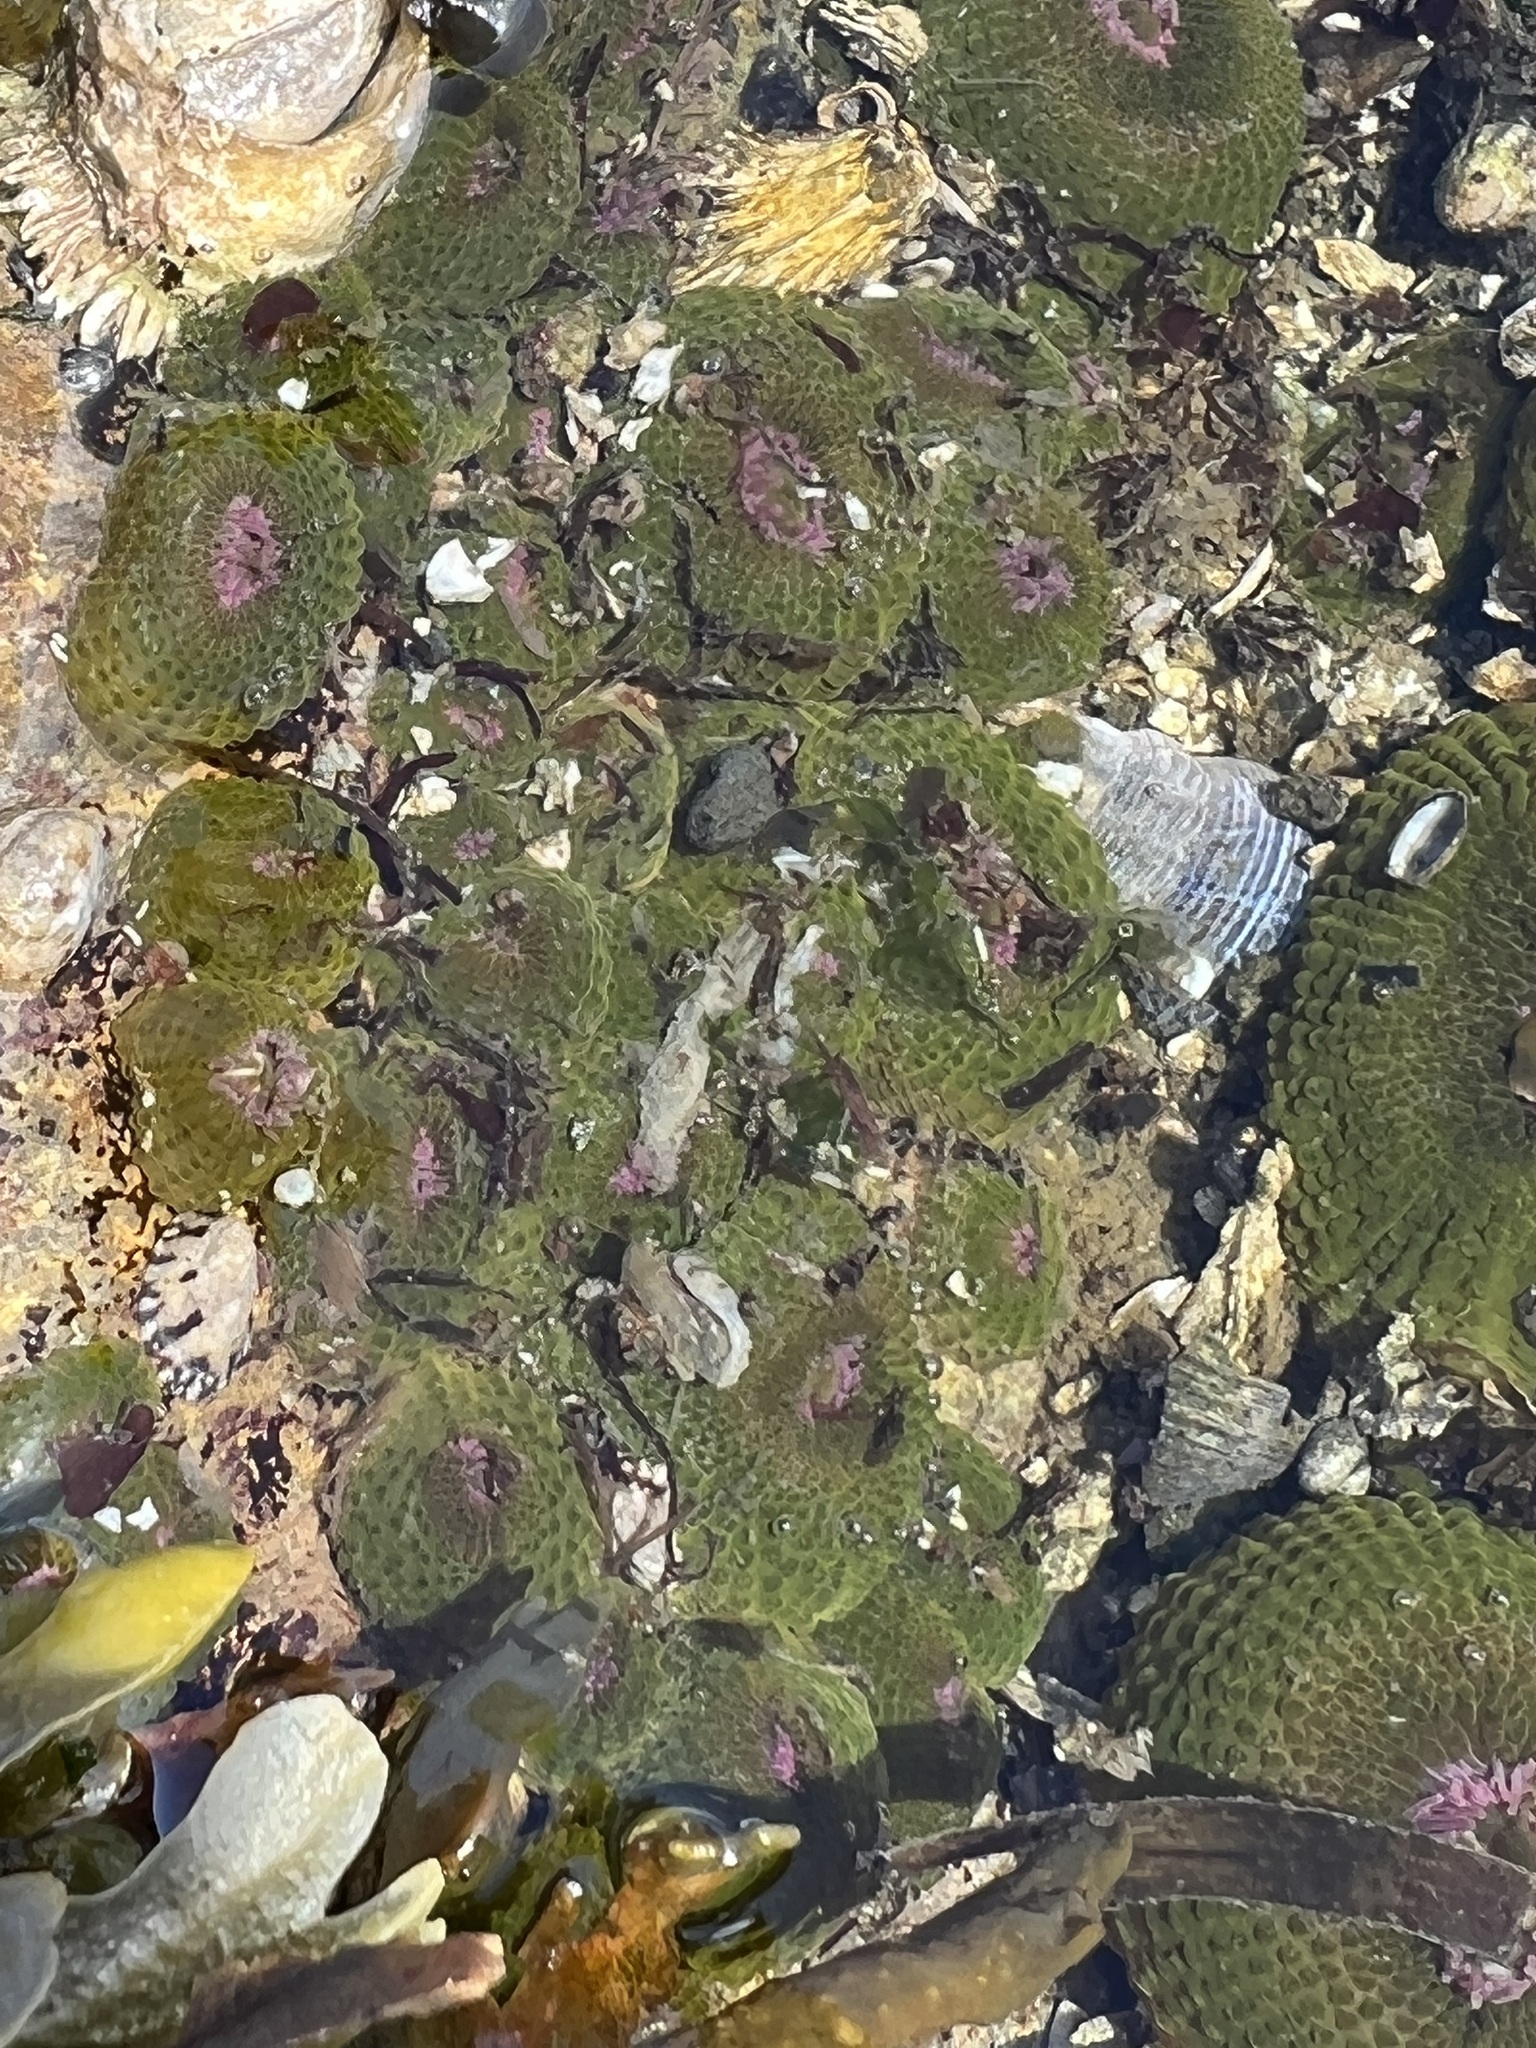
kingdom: Animalia
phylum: Cnidaria
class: Anthozoa
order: Actiniaria
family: Actiniidae
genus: Anthopleura
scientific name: Anthopleura elegantissima
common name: Clonal anemone
